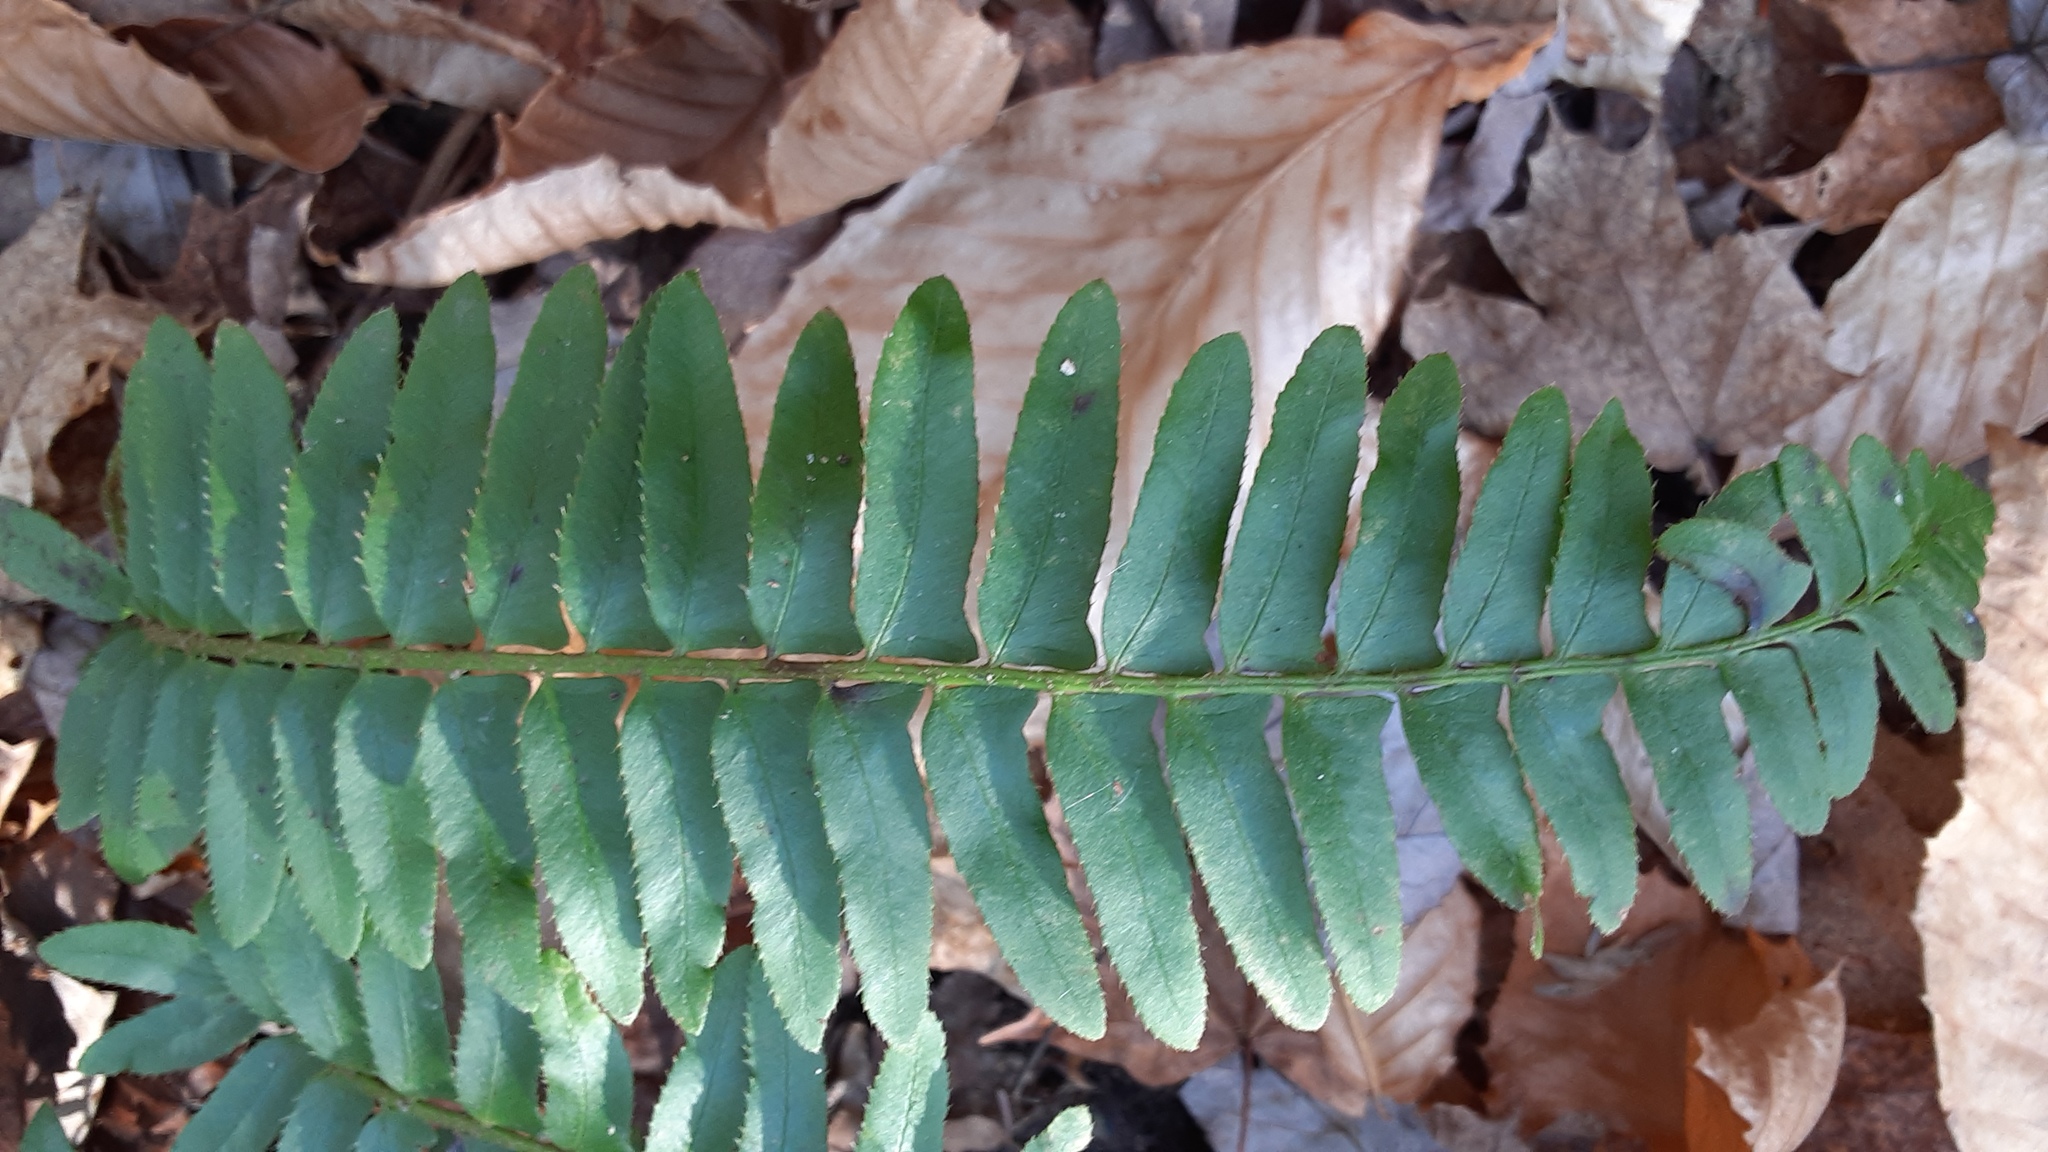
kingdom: Plantae
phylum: Tracheophyta
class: Polypodiopsida
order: Polypodiales
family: Dryopteridaceae
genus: Polystichum
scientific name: Polystichum acrostichoides
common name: Christmas fern
